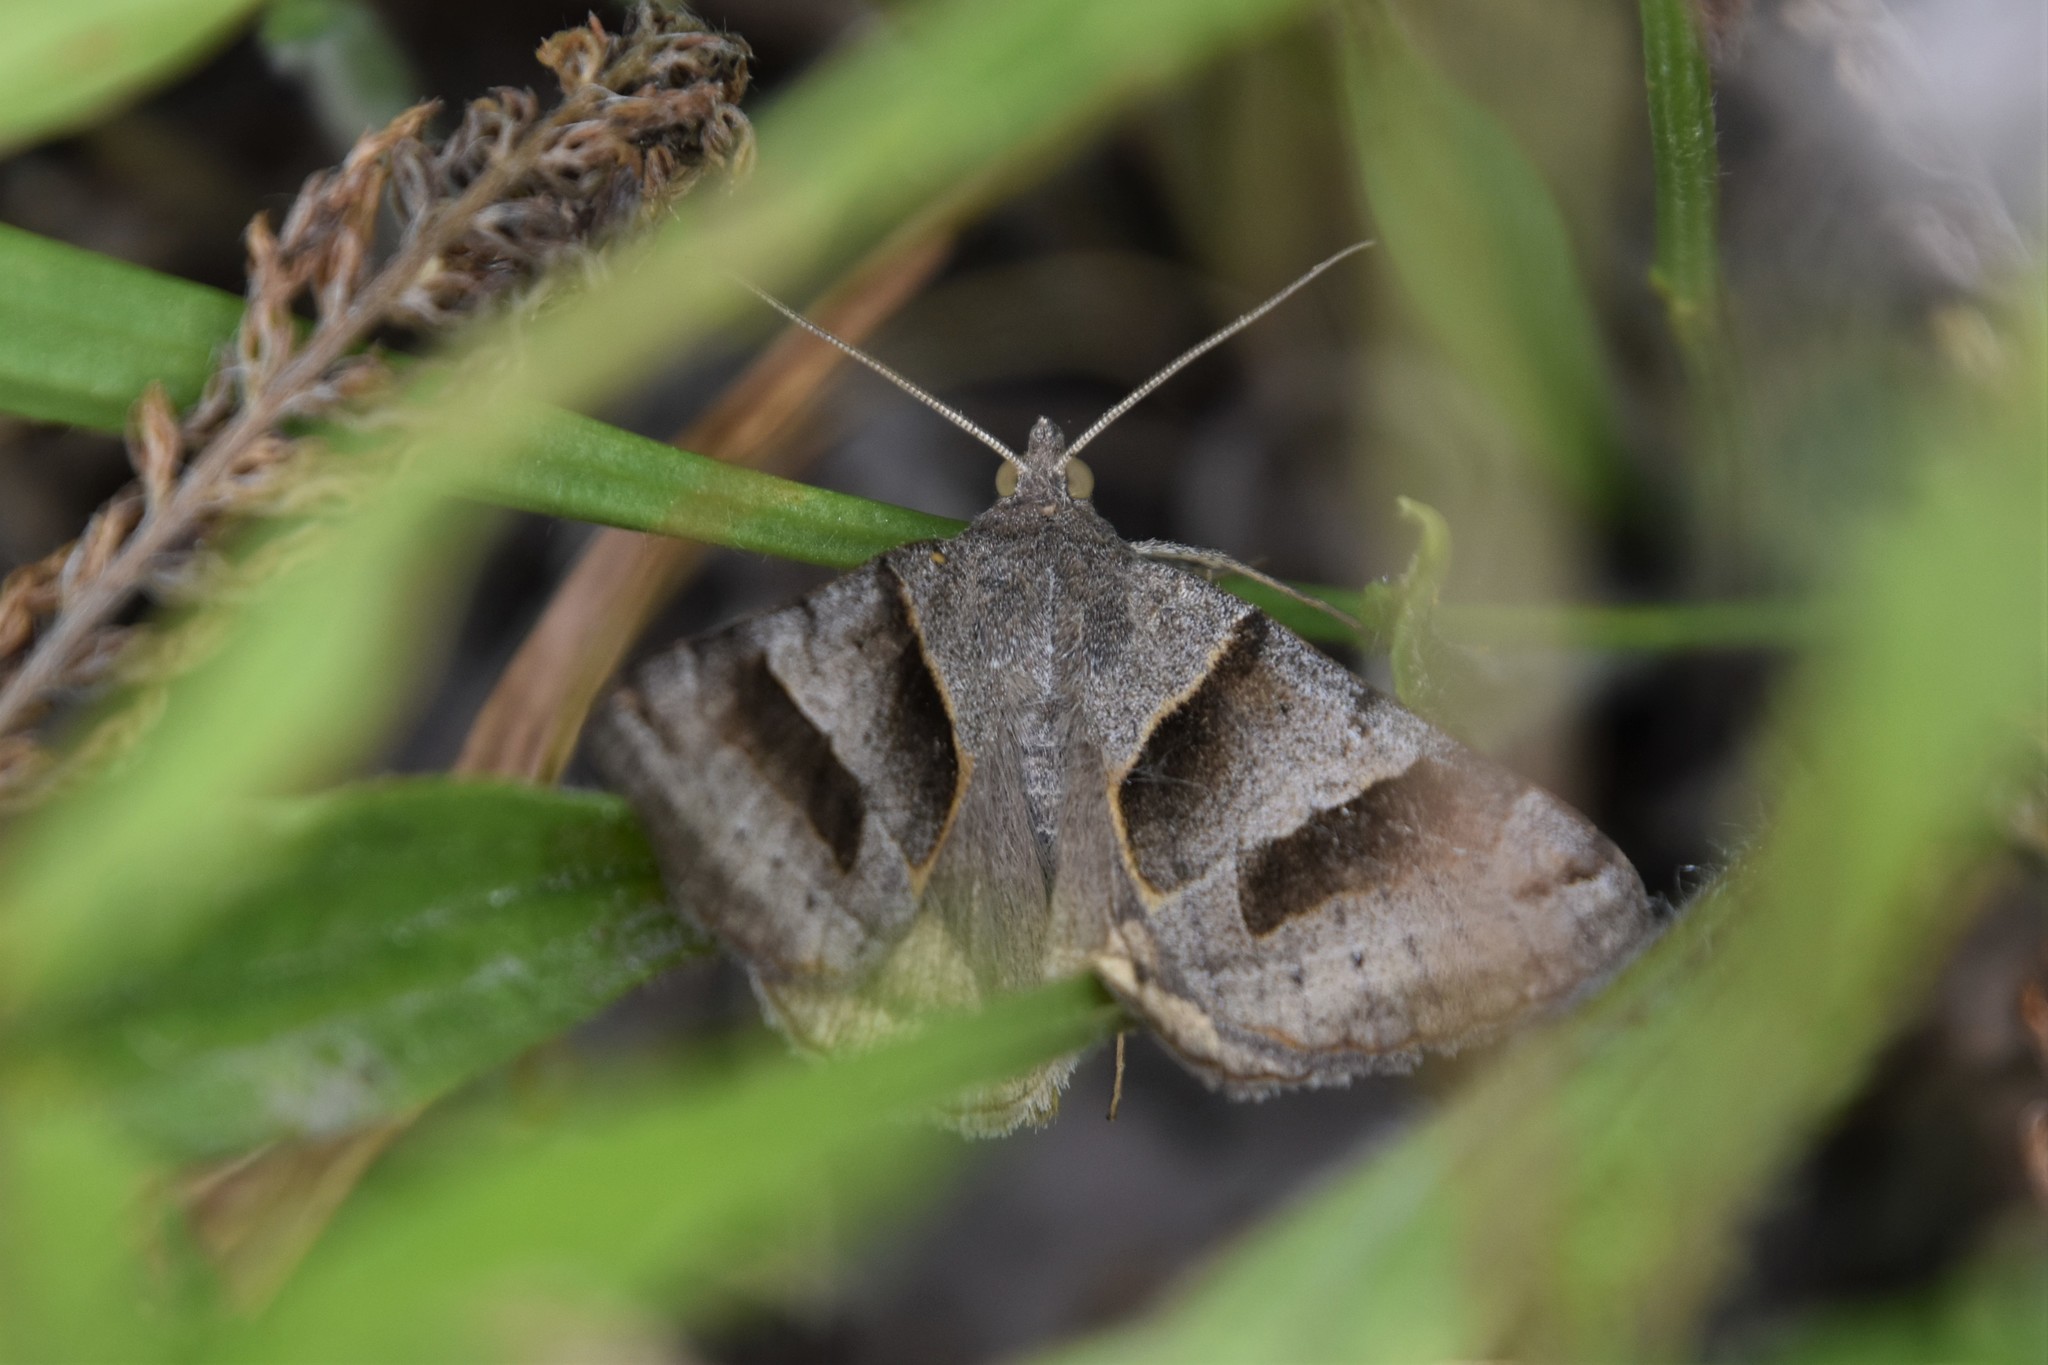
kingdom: Animalia
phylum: Arthropoda
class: Insecta
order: Lepidoptera
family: Erebidae
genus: Caenurgina
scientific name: Caenurgina erechtea
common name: Forage looper moth
